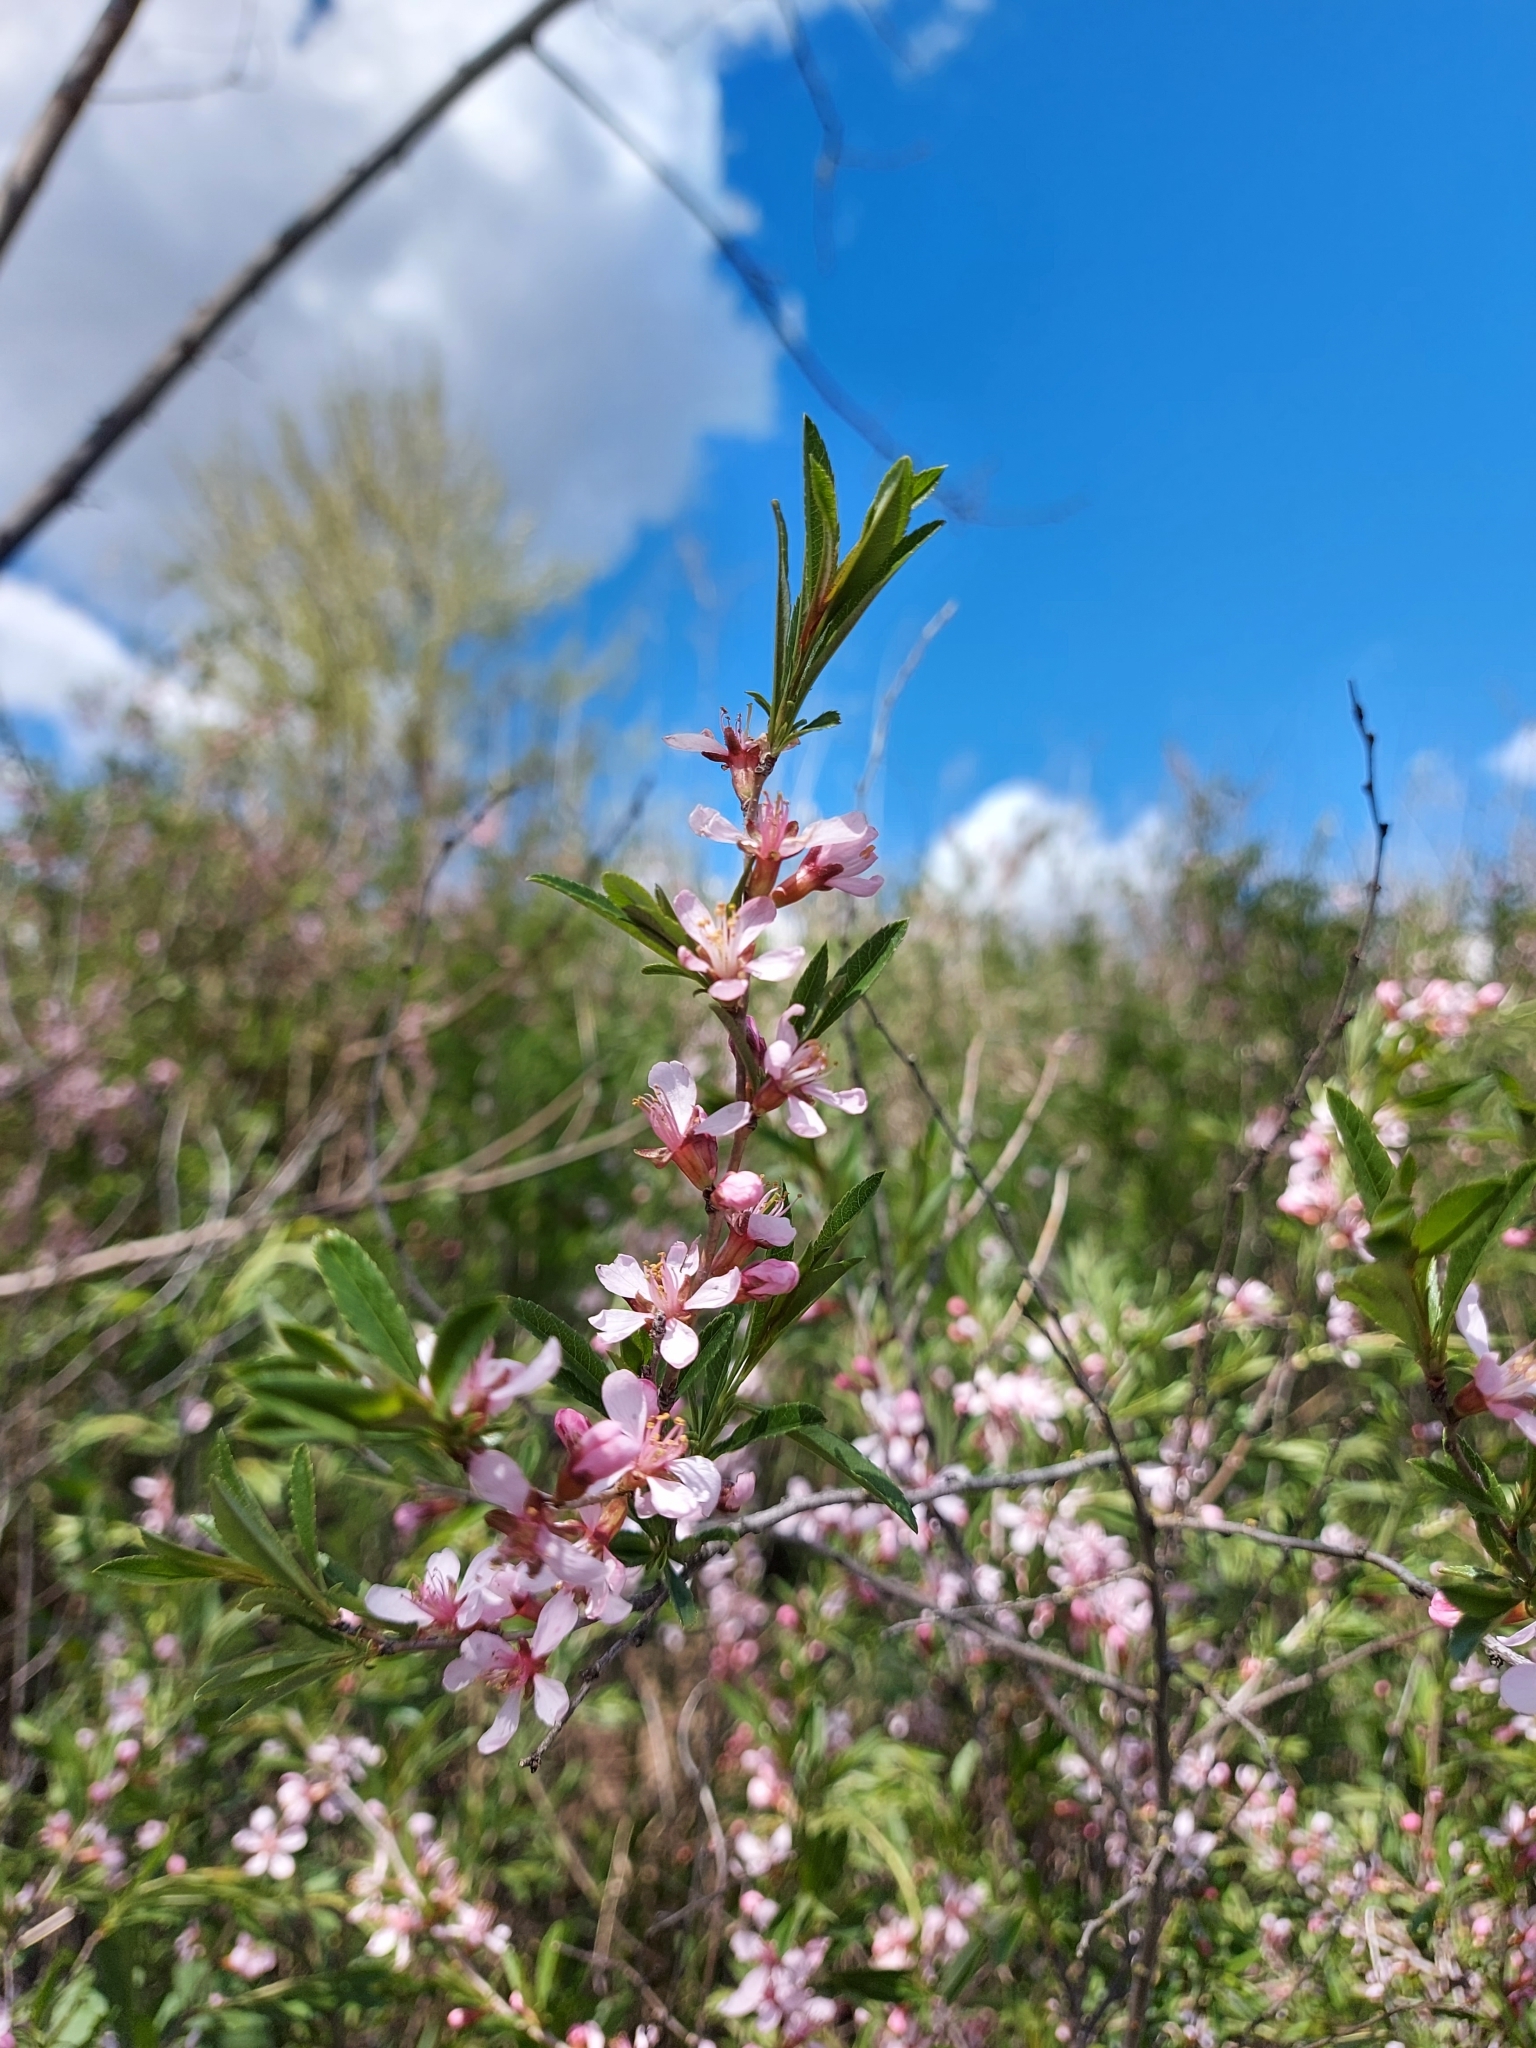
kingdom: Plantae
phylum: Tracheophyta
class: Magnoliopsida
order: Rosales
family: Rosaceae
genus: Prunus
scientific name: Prunus tenella
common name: Dwarf russian almond
